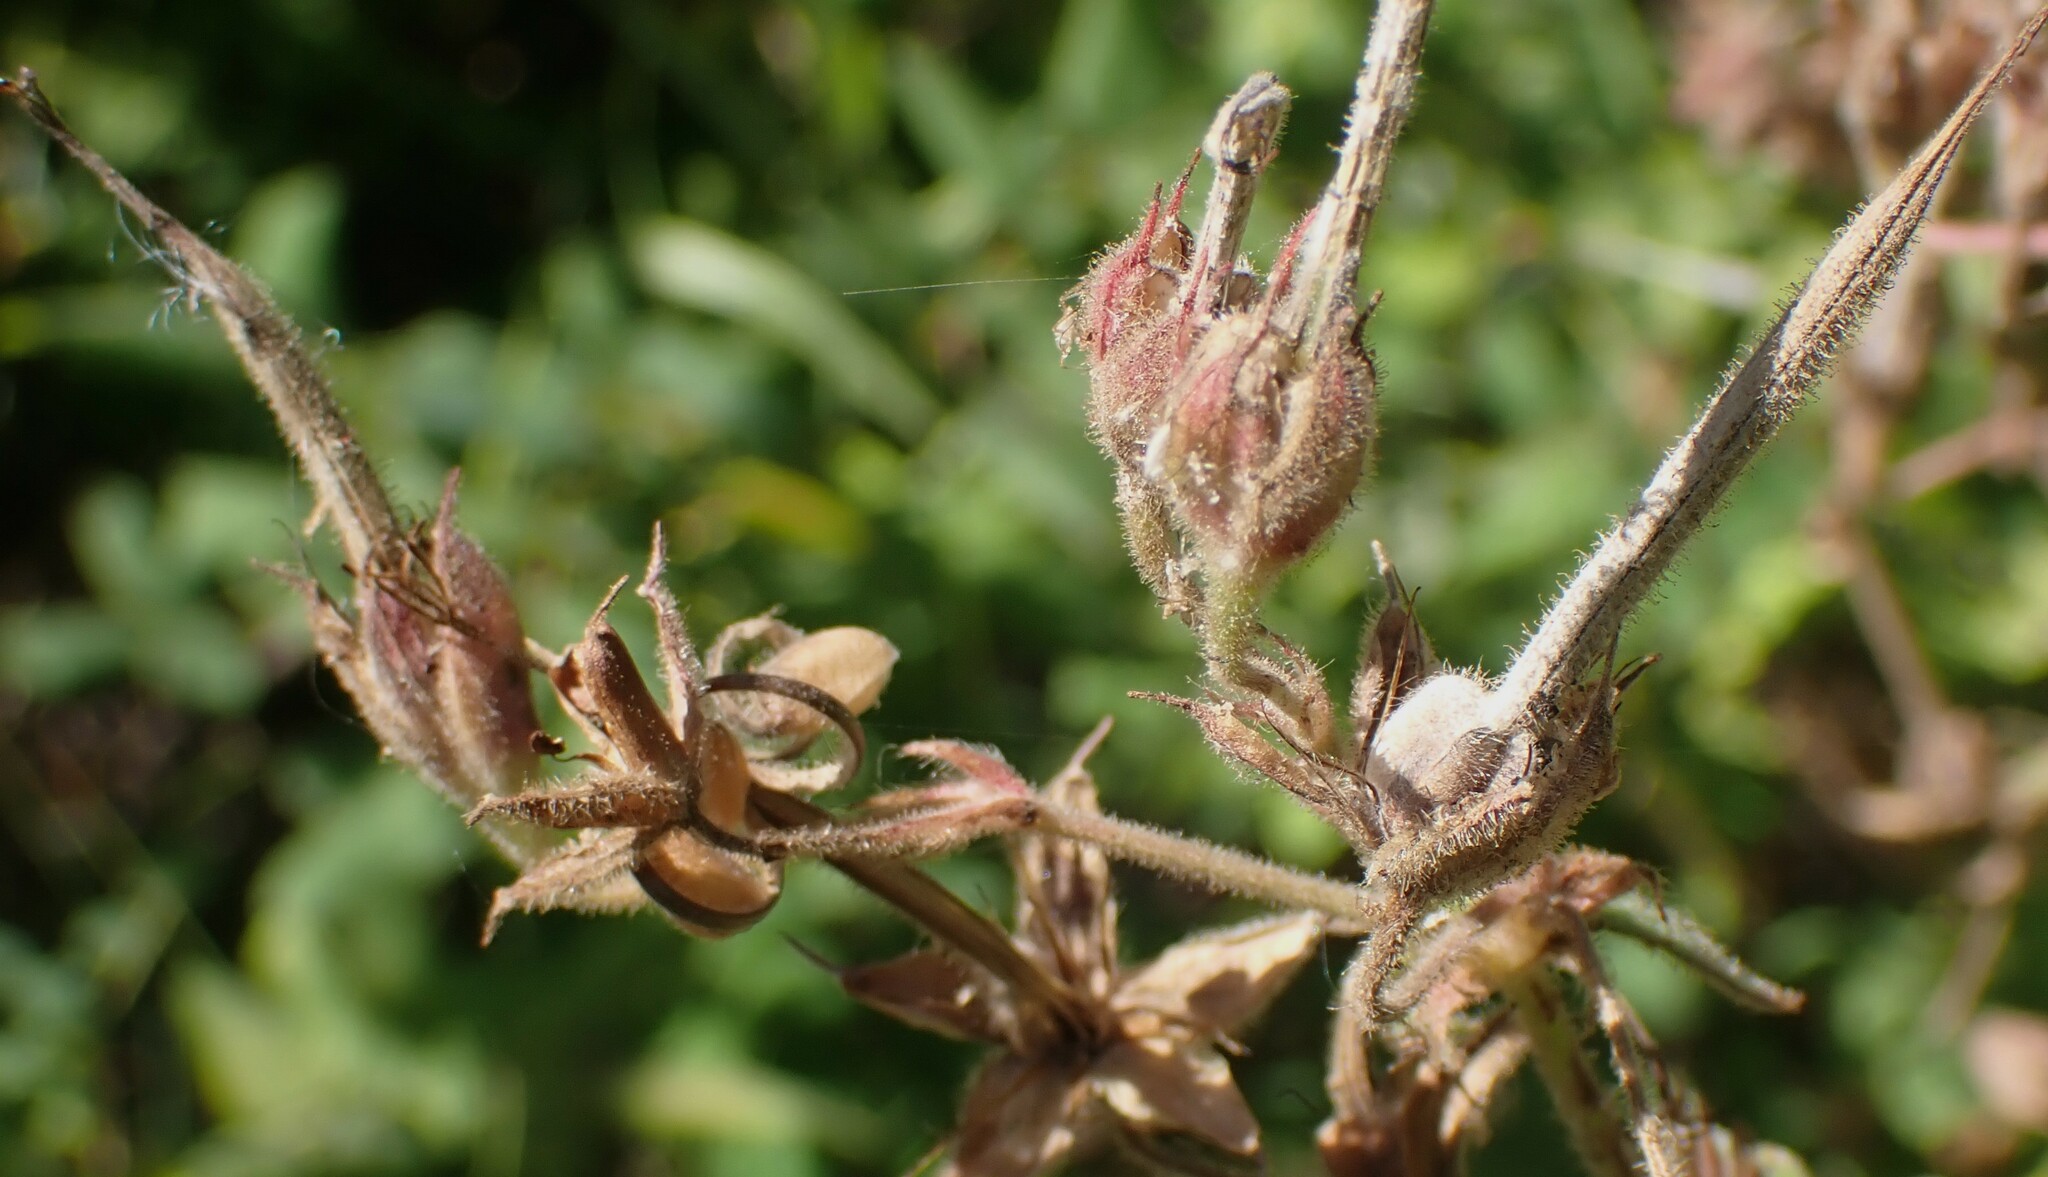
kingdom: Plantae
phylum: Tracheophyta
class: Magnoliopsida
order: Geraniales
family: Geraniaceae
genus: Geranium
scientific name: Geranium viscosissimum
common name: Purple geranium
